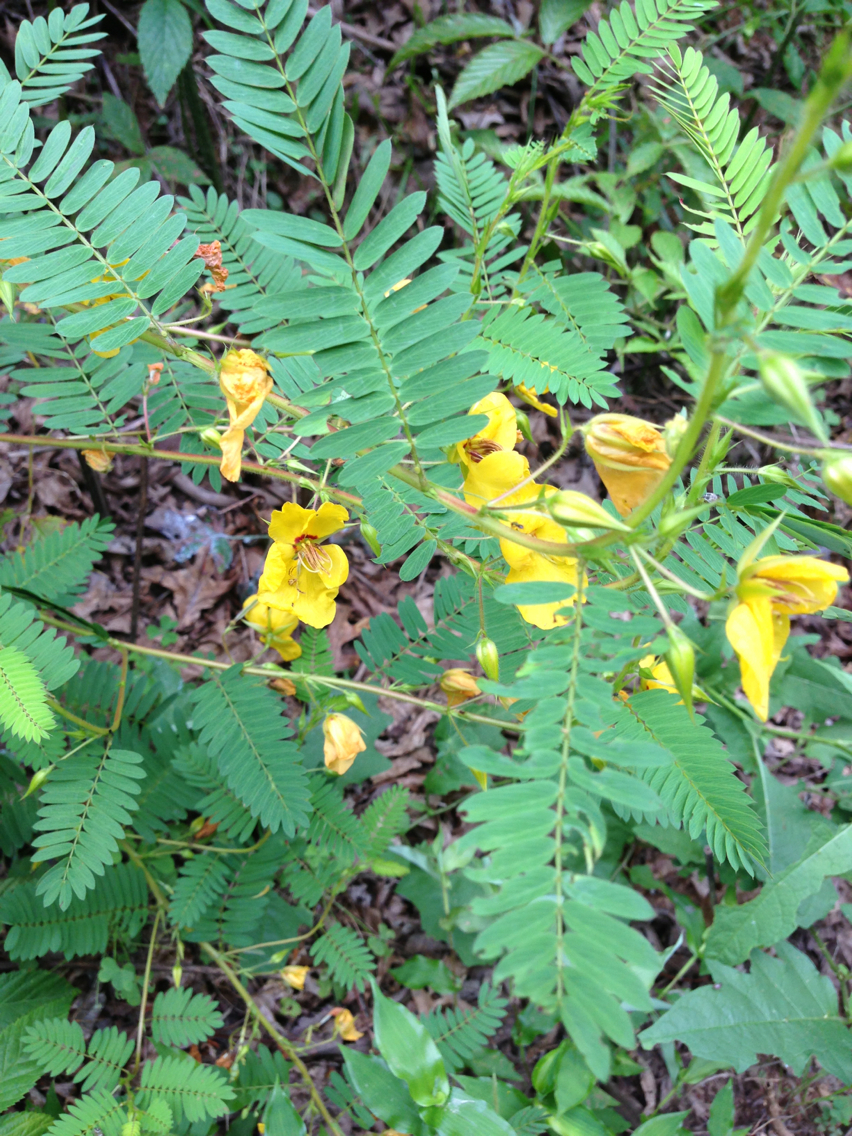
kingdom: Plantae
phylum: Tracheophyta
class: Magnoliopsida
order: Fabales
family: Fabaceae
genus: Chamaecrista
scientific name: Chamaecrista fasciculata
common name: Golden cassia
